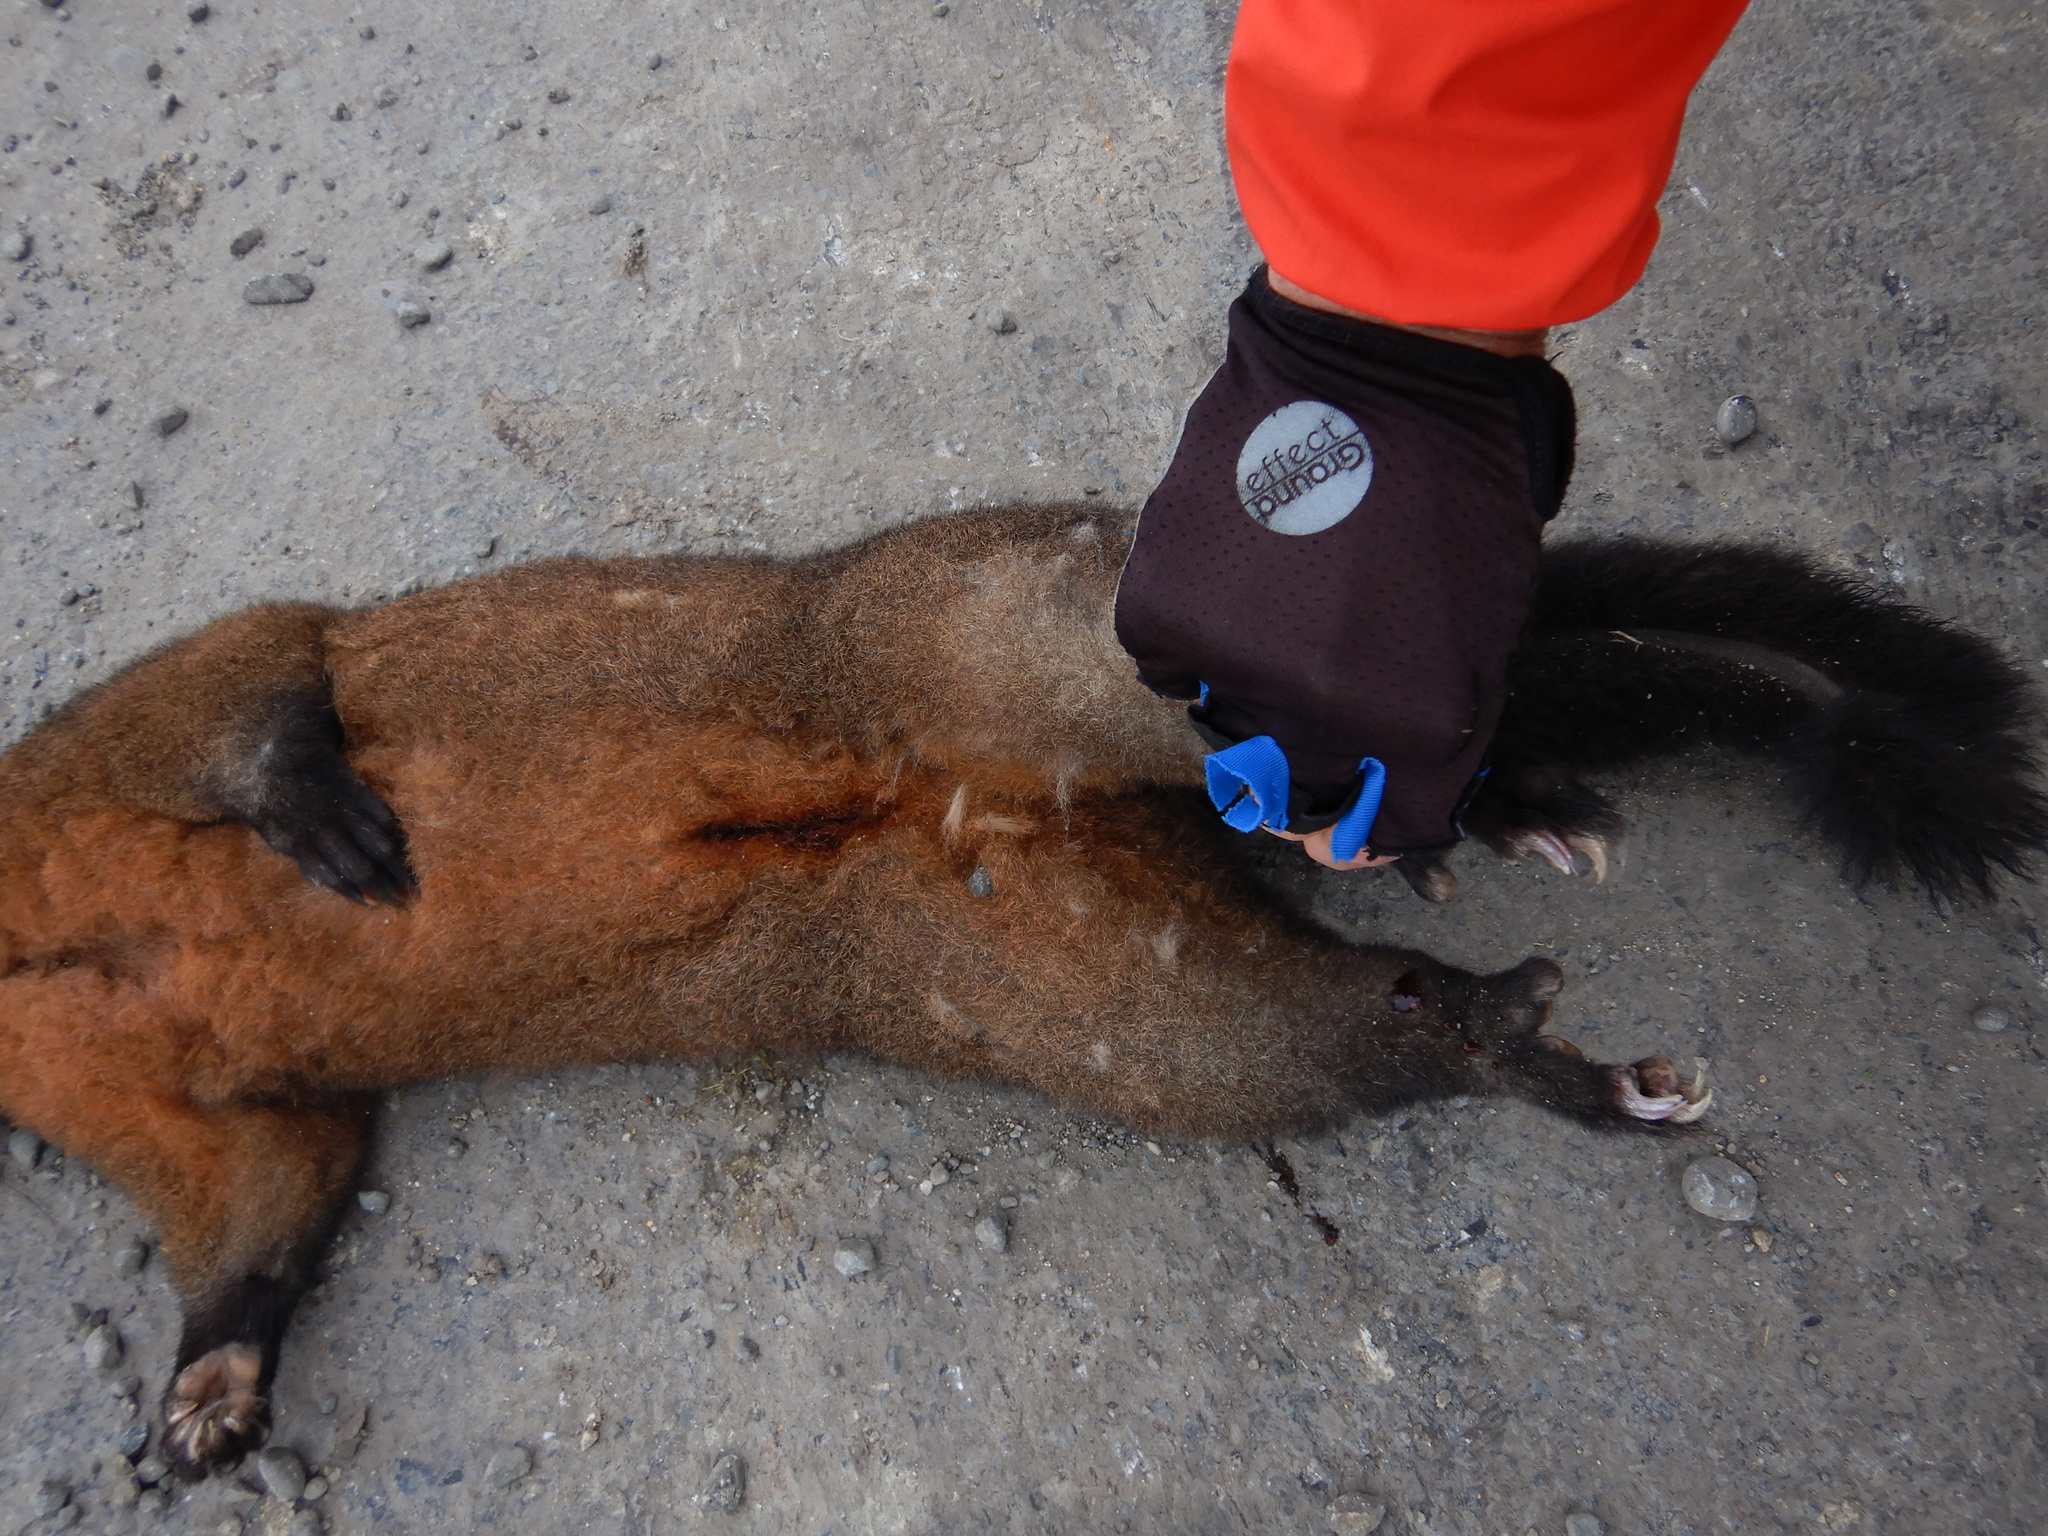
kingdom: Animalia
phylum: Chordata
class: Mammalia
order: Diprotodontia
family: Phalangeridae
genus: Trichosurus
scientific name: Trichosurus vulpecula
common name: Common brushtail
